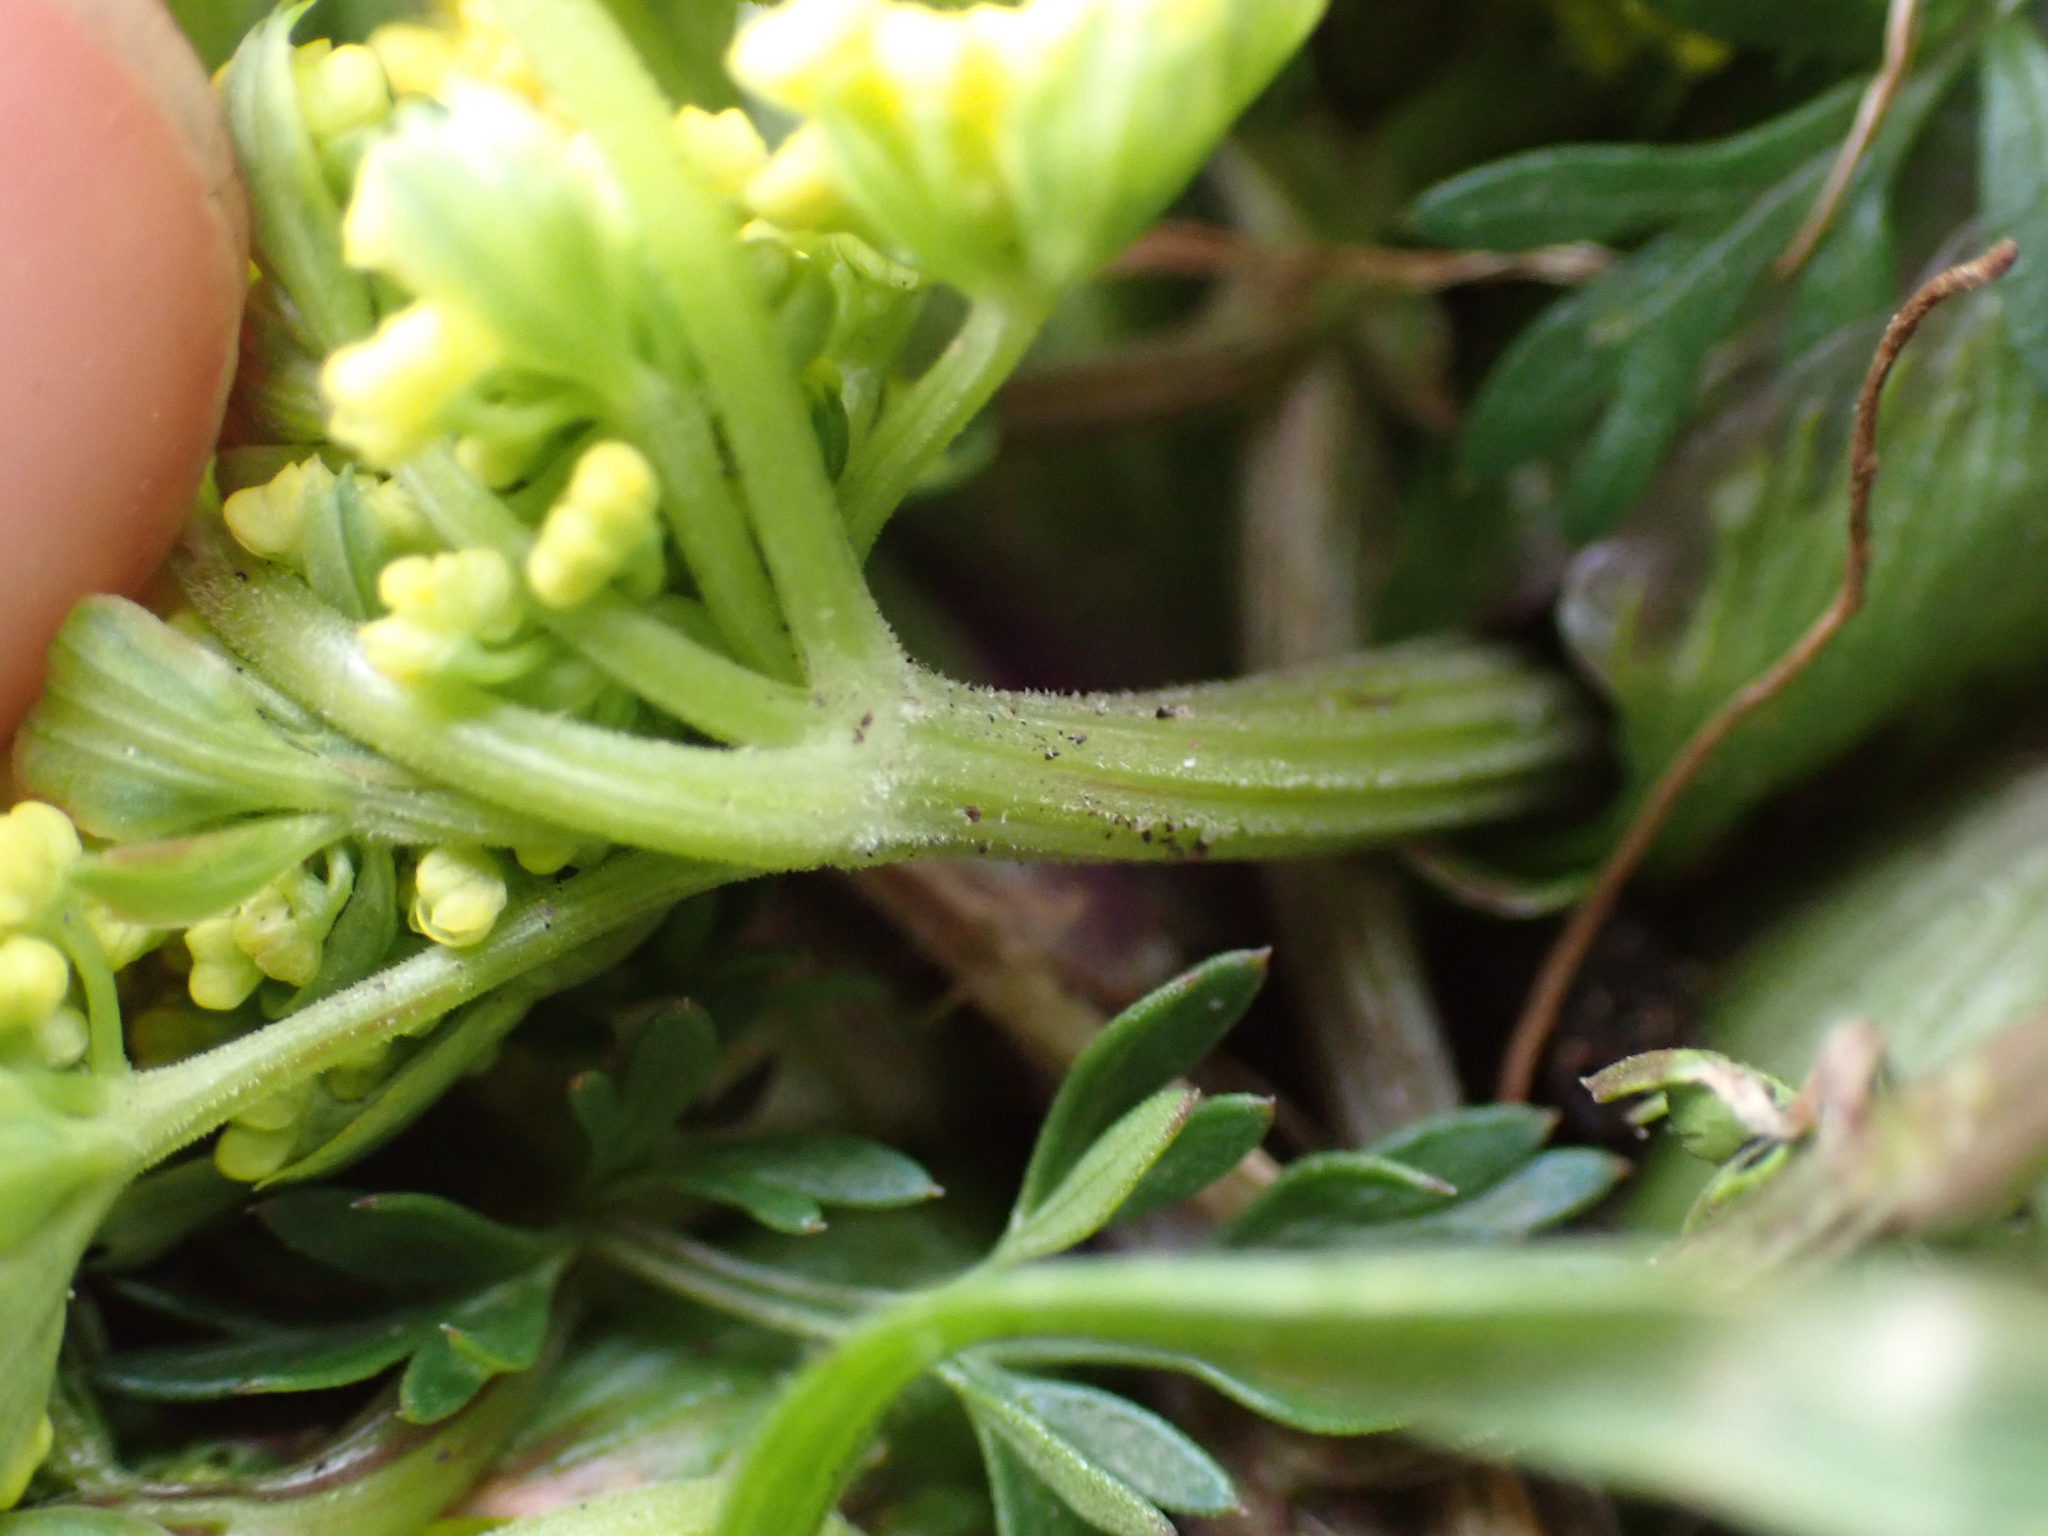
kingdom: Plantae
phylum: Tracheophyta
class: Magnoliopsida
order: Apiales
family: Apiaceae
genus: Lomatium
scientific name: Lomatium utriculatum
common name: Fine-leaf desert-parsley
